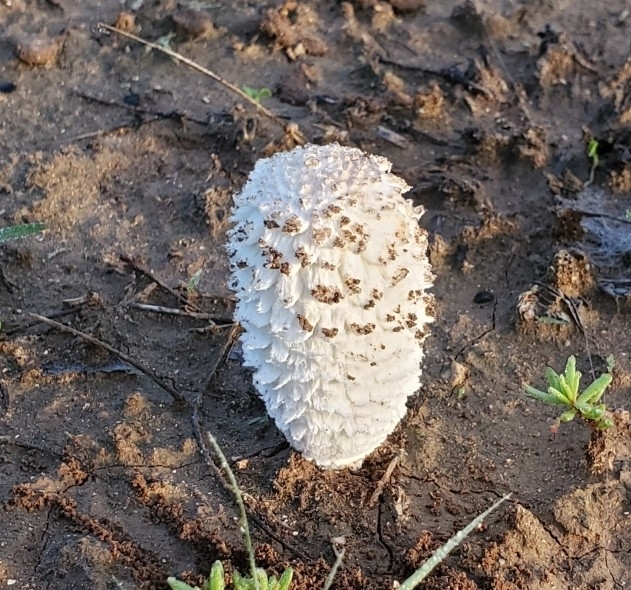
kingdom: Fungi
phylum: Basidiomycota
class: Agaricomycetes
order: Agaricales
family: Agaricaceae
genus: Coprinus
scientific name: Coprinus comatus
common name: Lawyer's wig
